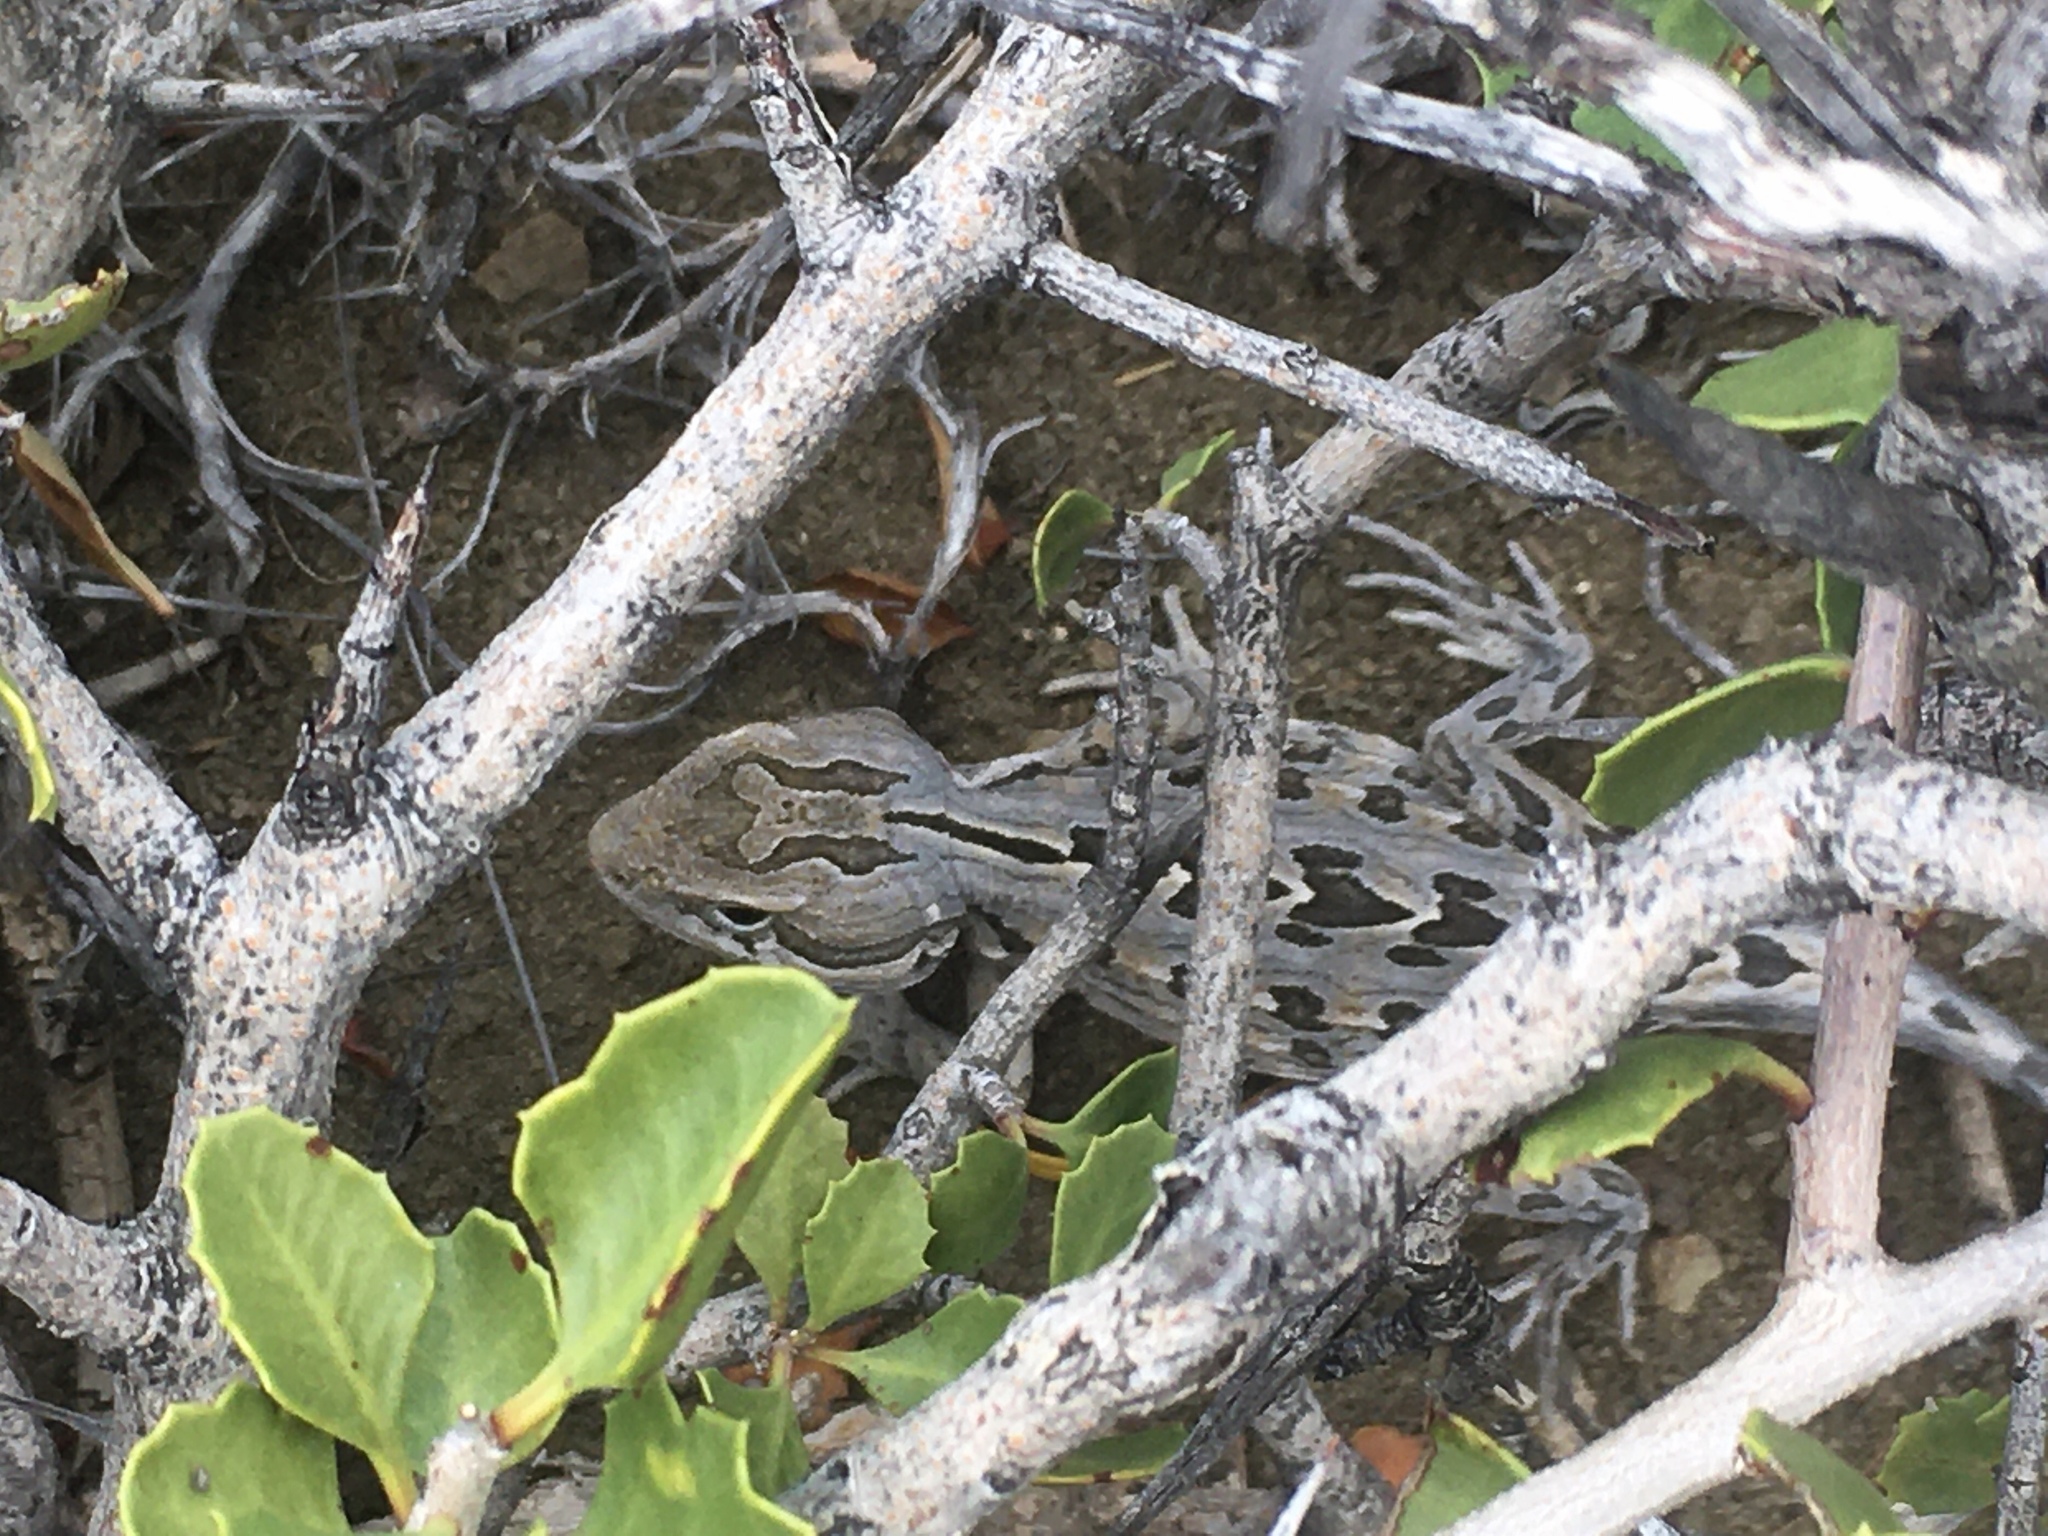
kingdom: Animalia
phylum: Chordata
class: Squamata
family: Leiosauridae
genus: Leiosaurus
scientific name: Leiosaurus bellii
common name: Bell's anole
